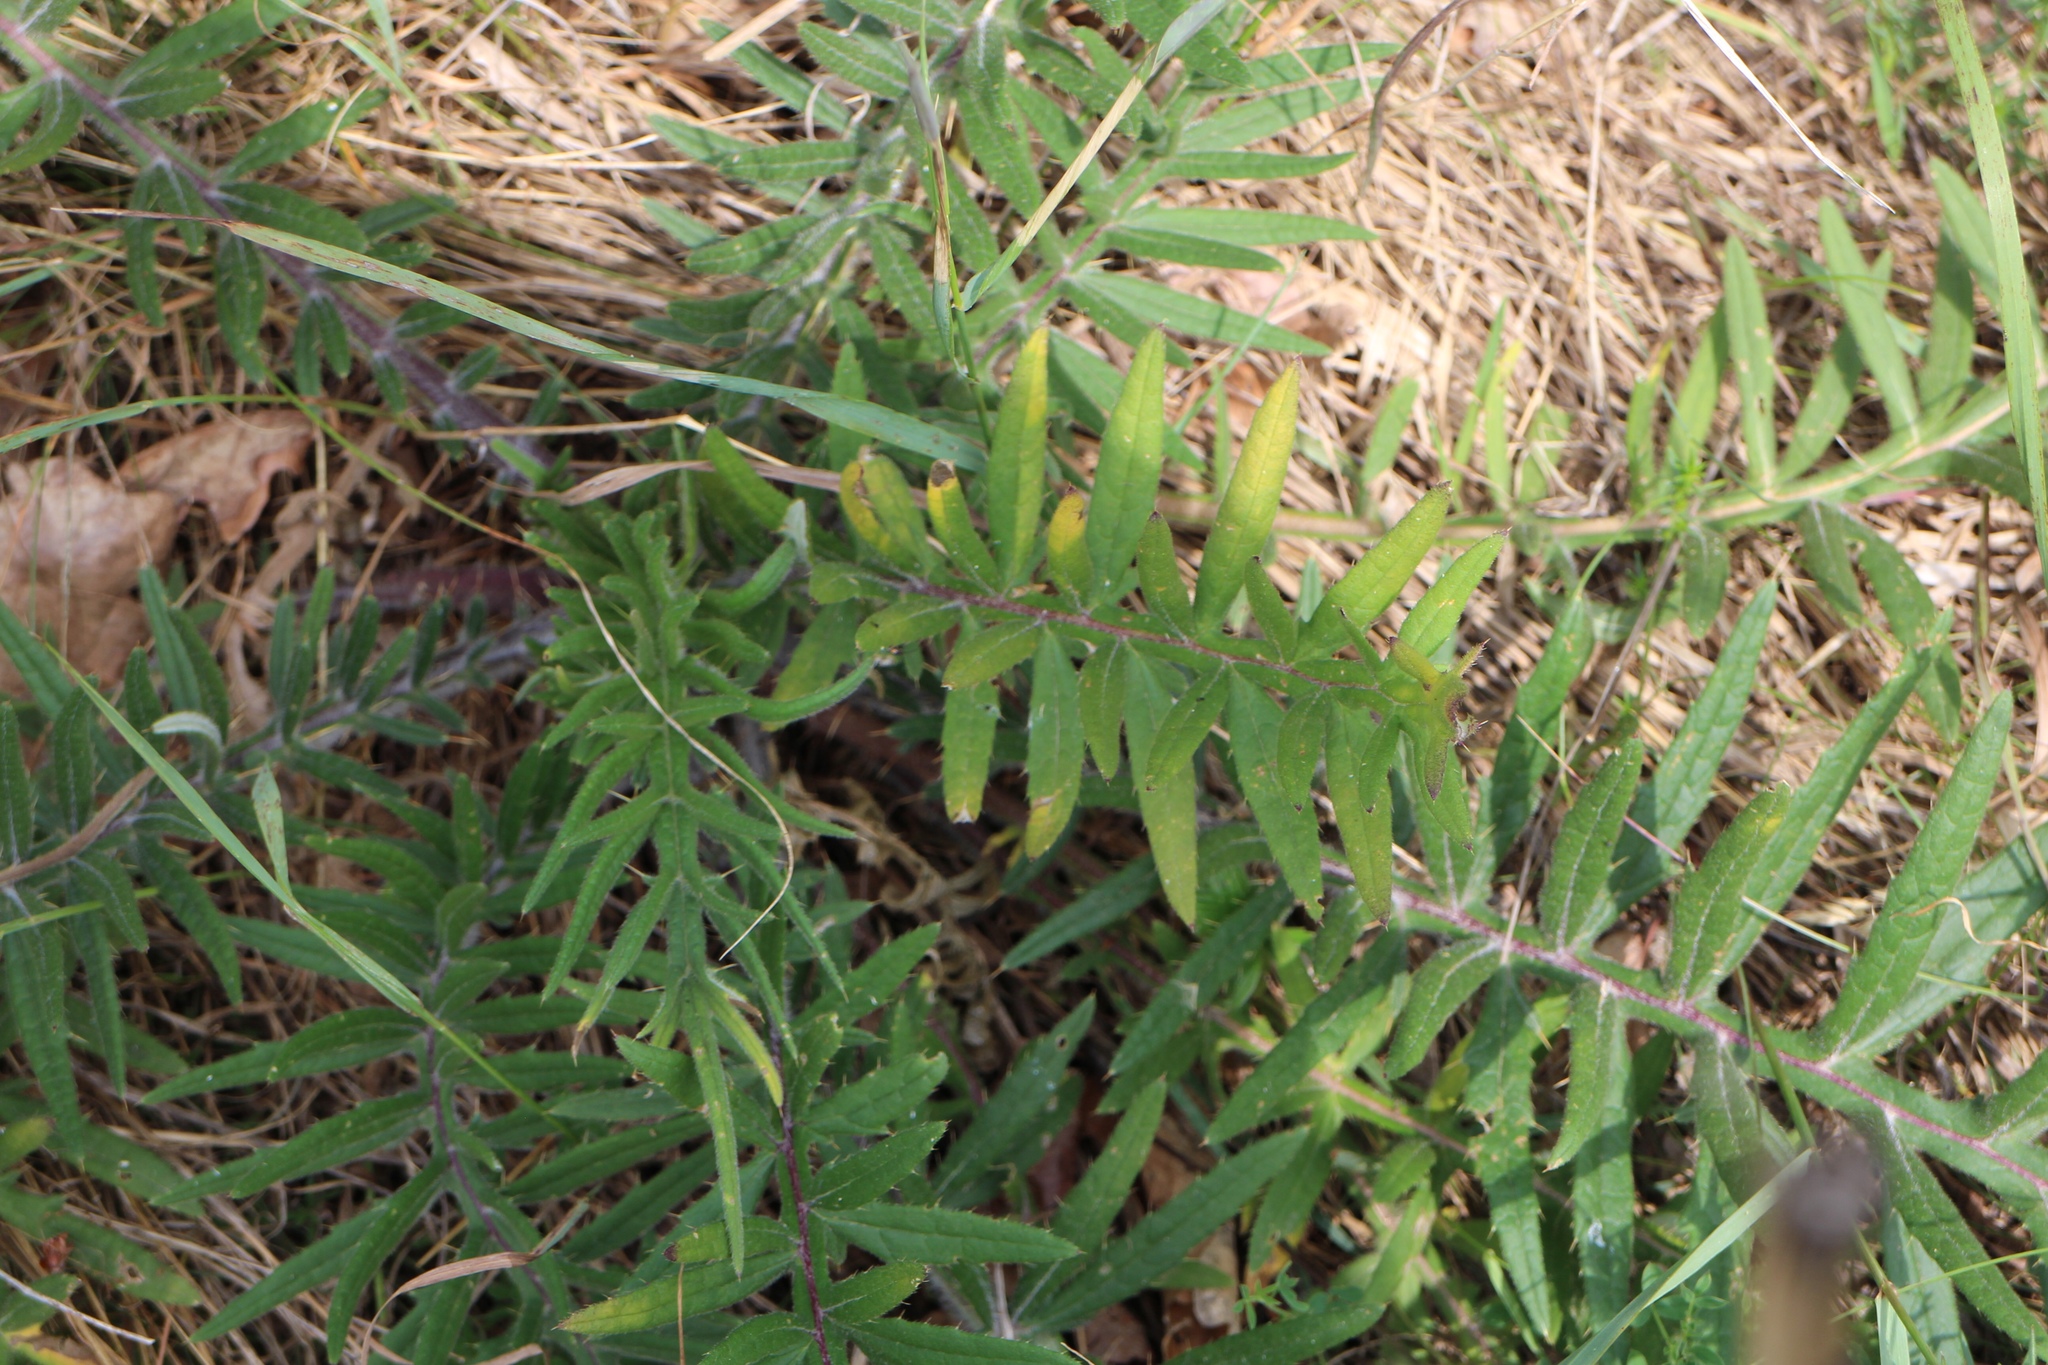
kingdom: Plantae
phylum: Tracheophyta
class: Magnoliopsida
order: Asterales
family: Asteraceae
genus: Lophiolepis
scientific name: Lophiolepis eriophora
